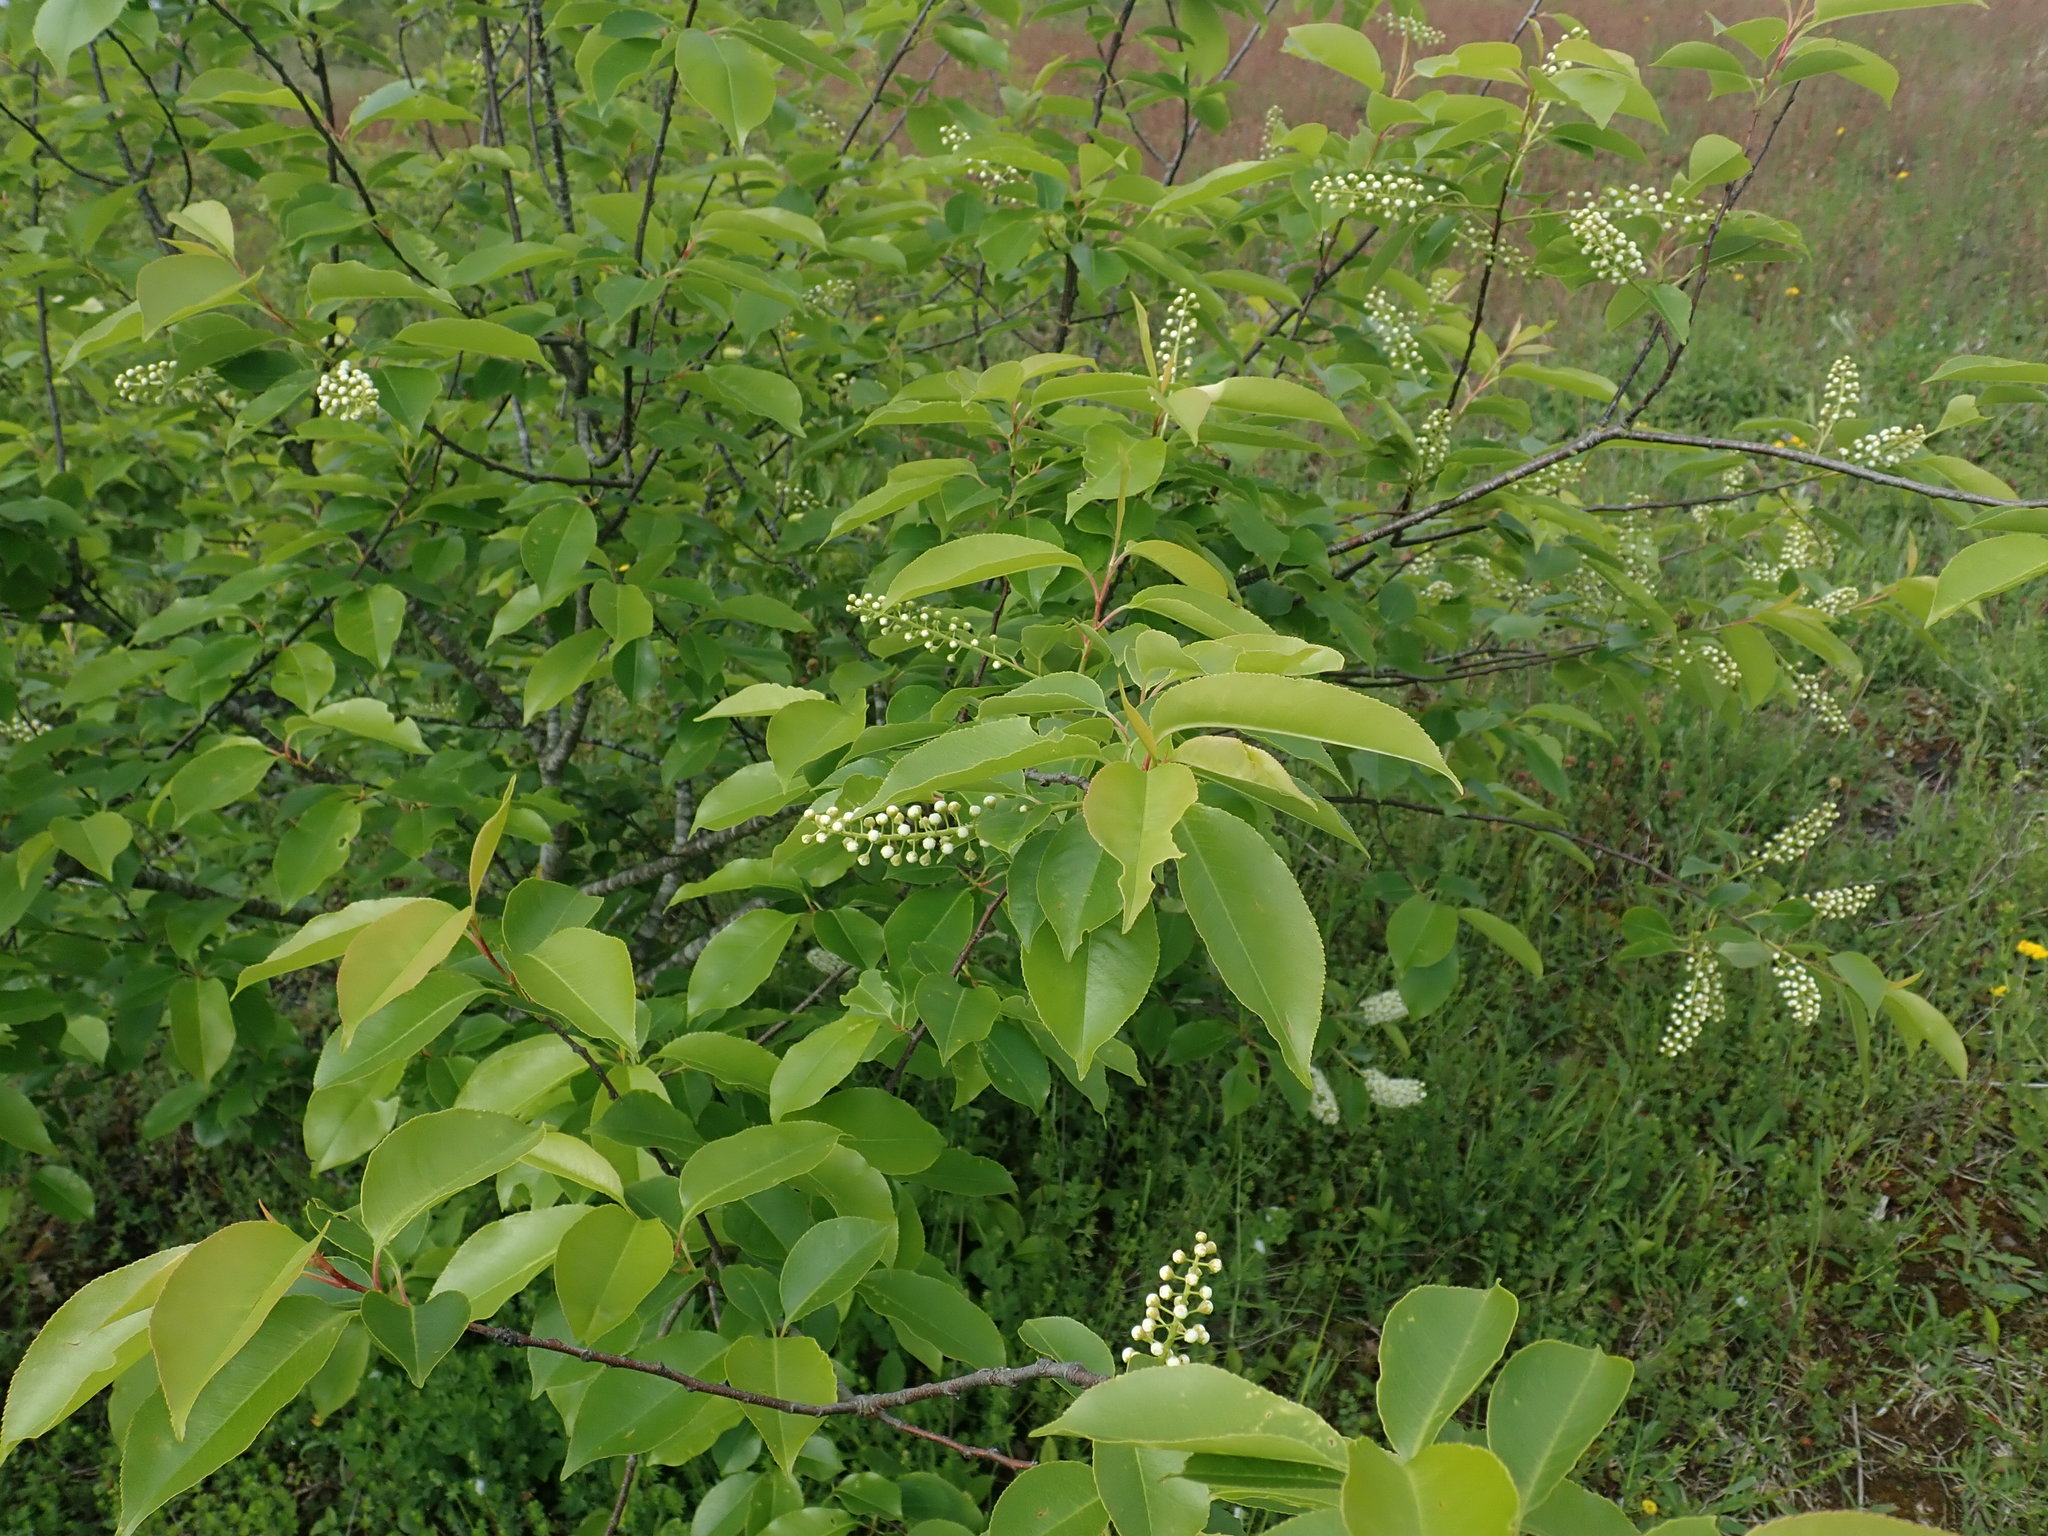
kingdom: Plantae
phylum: Tracheophyta
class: Magnoliopsida
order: Rosales
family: Rosaceae
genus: Prunus
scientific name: Prunus serotina
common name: Black cherry
